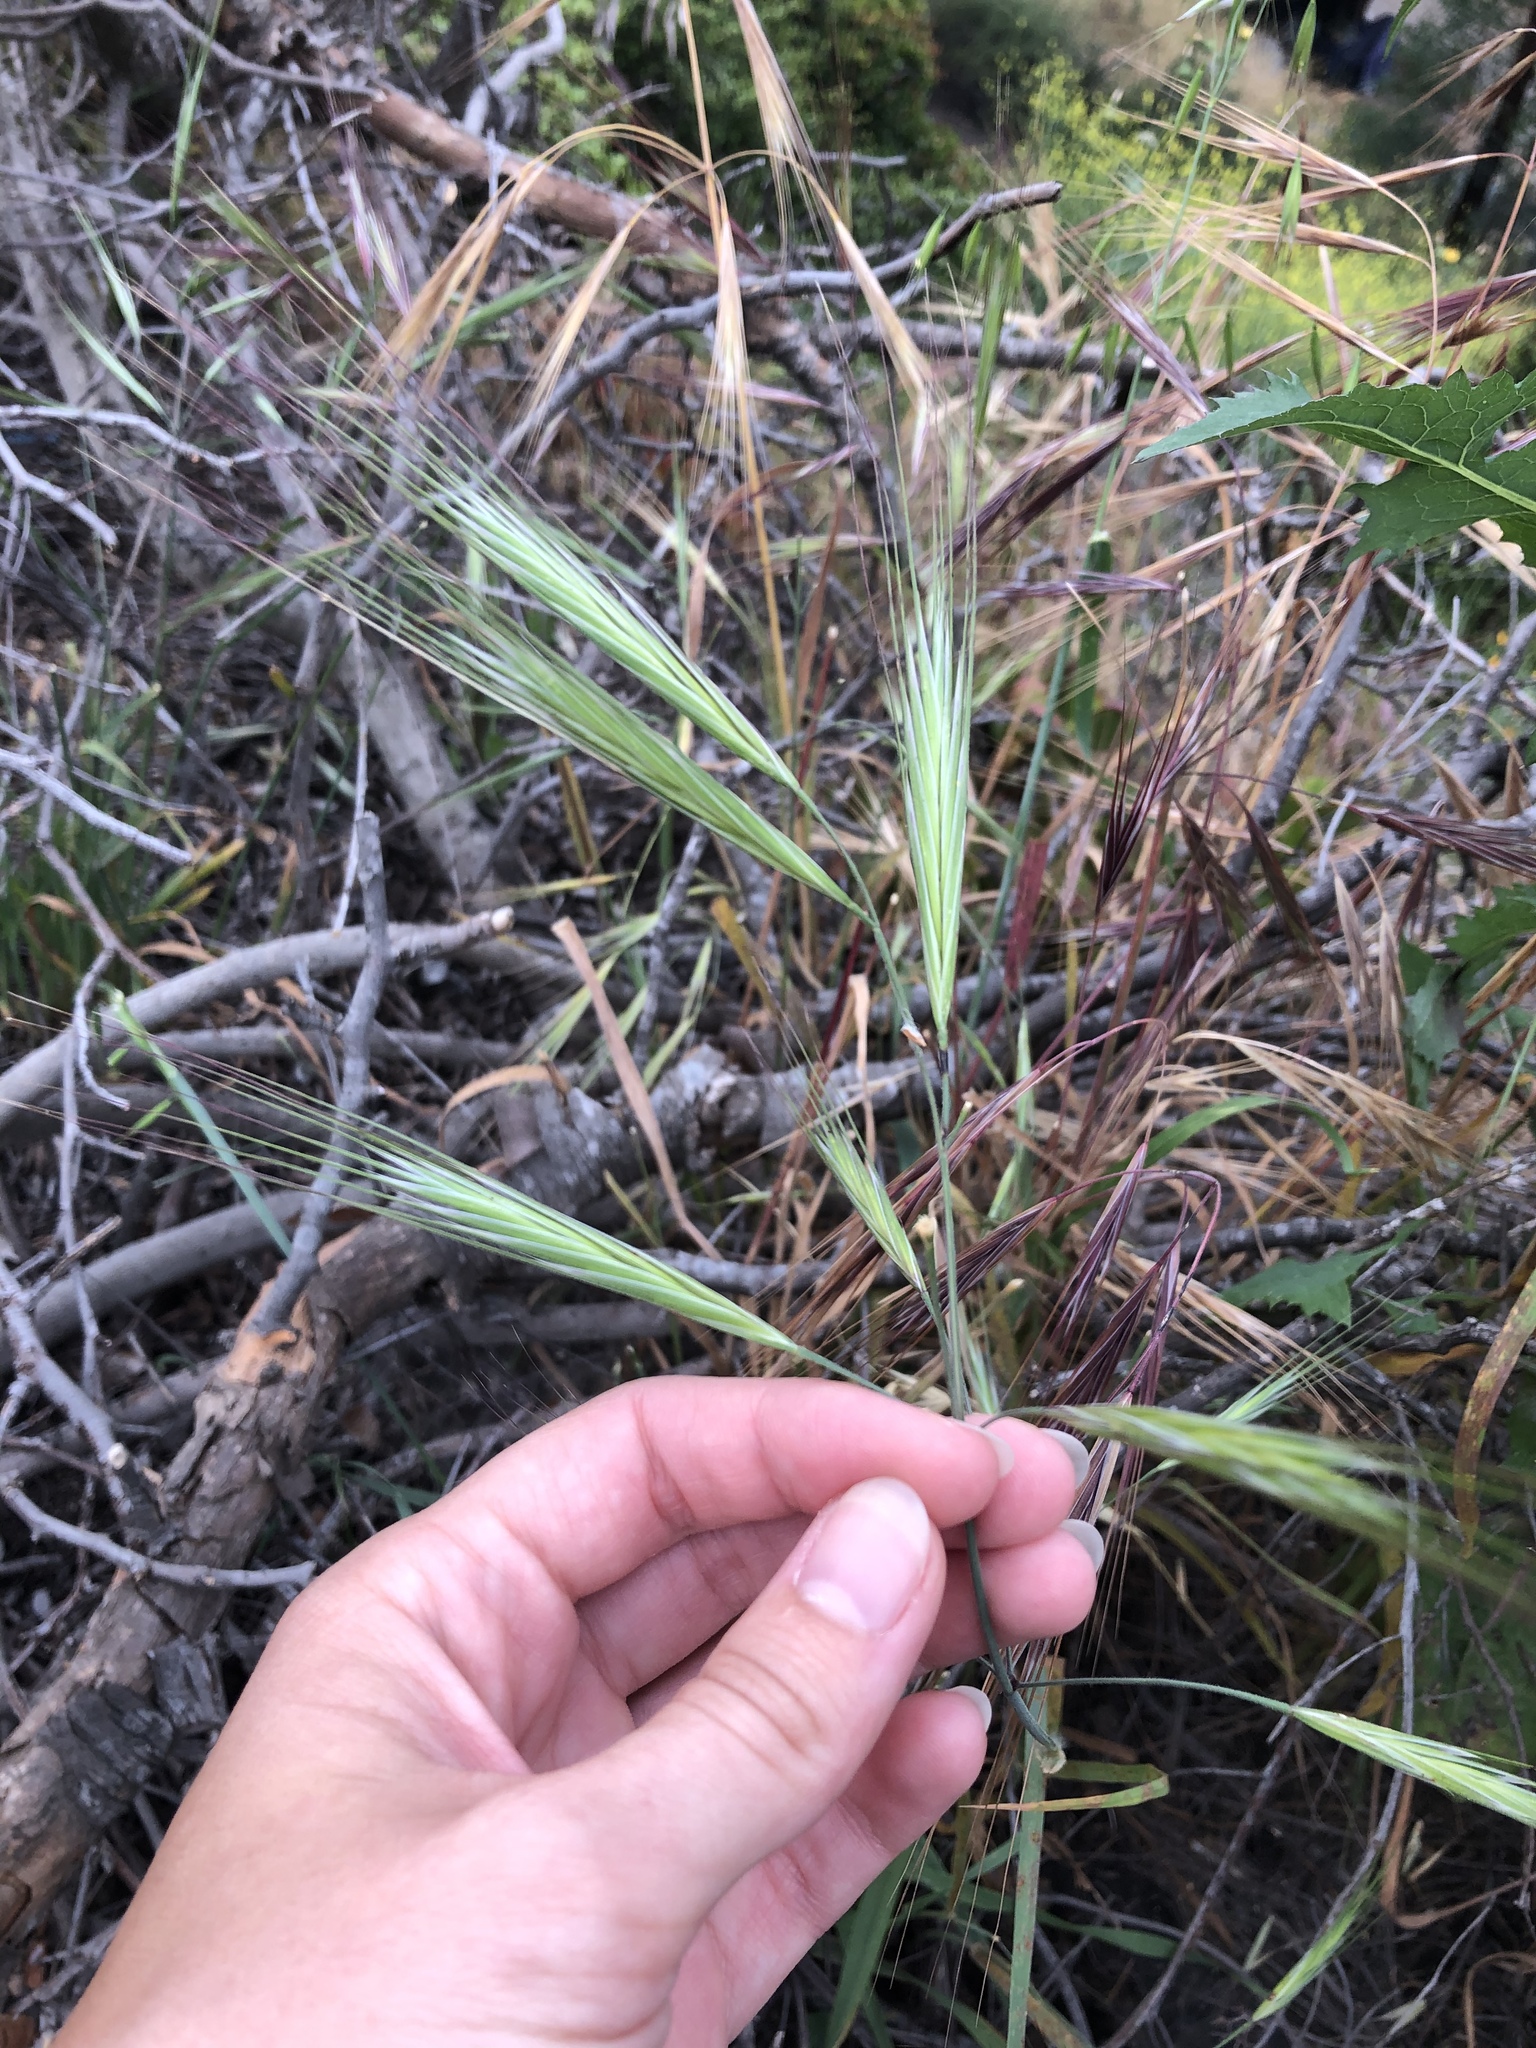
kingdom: Plantae
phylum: Tracheophyta
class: Liliopsida
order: Poales
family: Poaceae
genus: Bromus
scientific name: Bromus diandrus
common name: Ripgut brome
